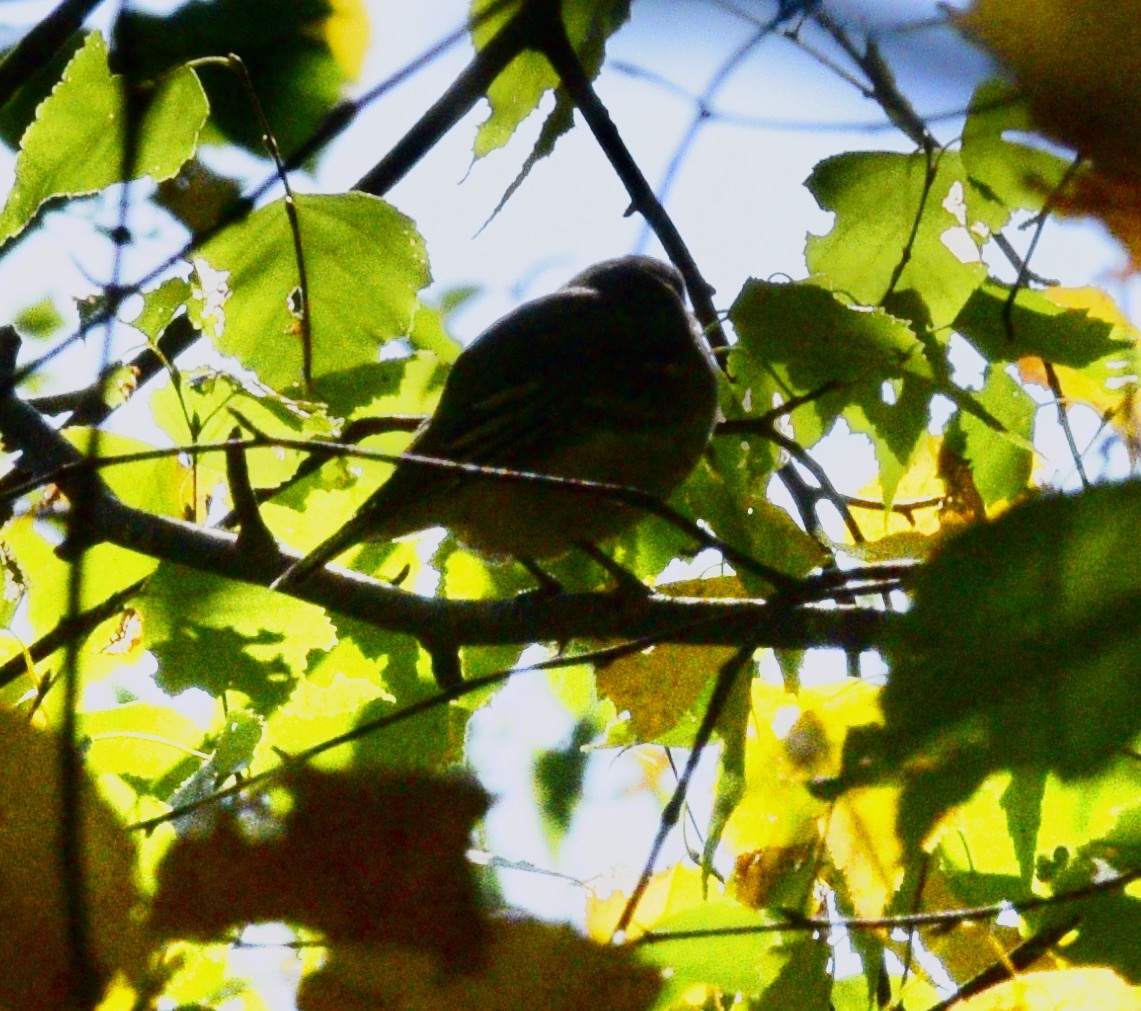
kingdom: Animalia
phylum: Chordata
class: Aves
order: Passeriformes
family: Vireonidae
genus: Vireo
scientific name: Vireo solitarius
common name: Blue-headed vireo
